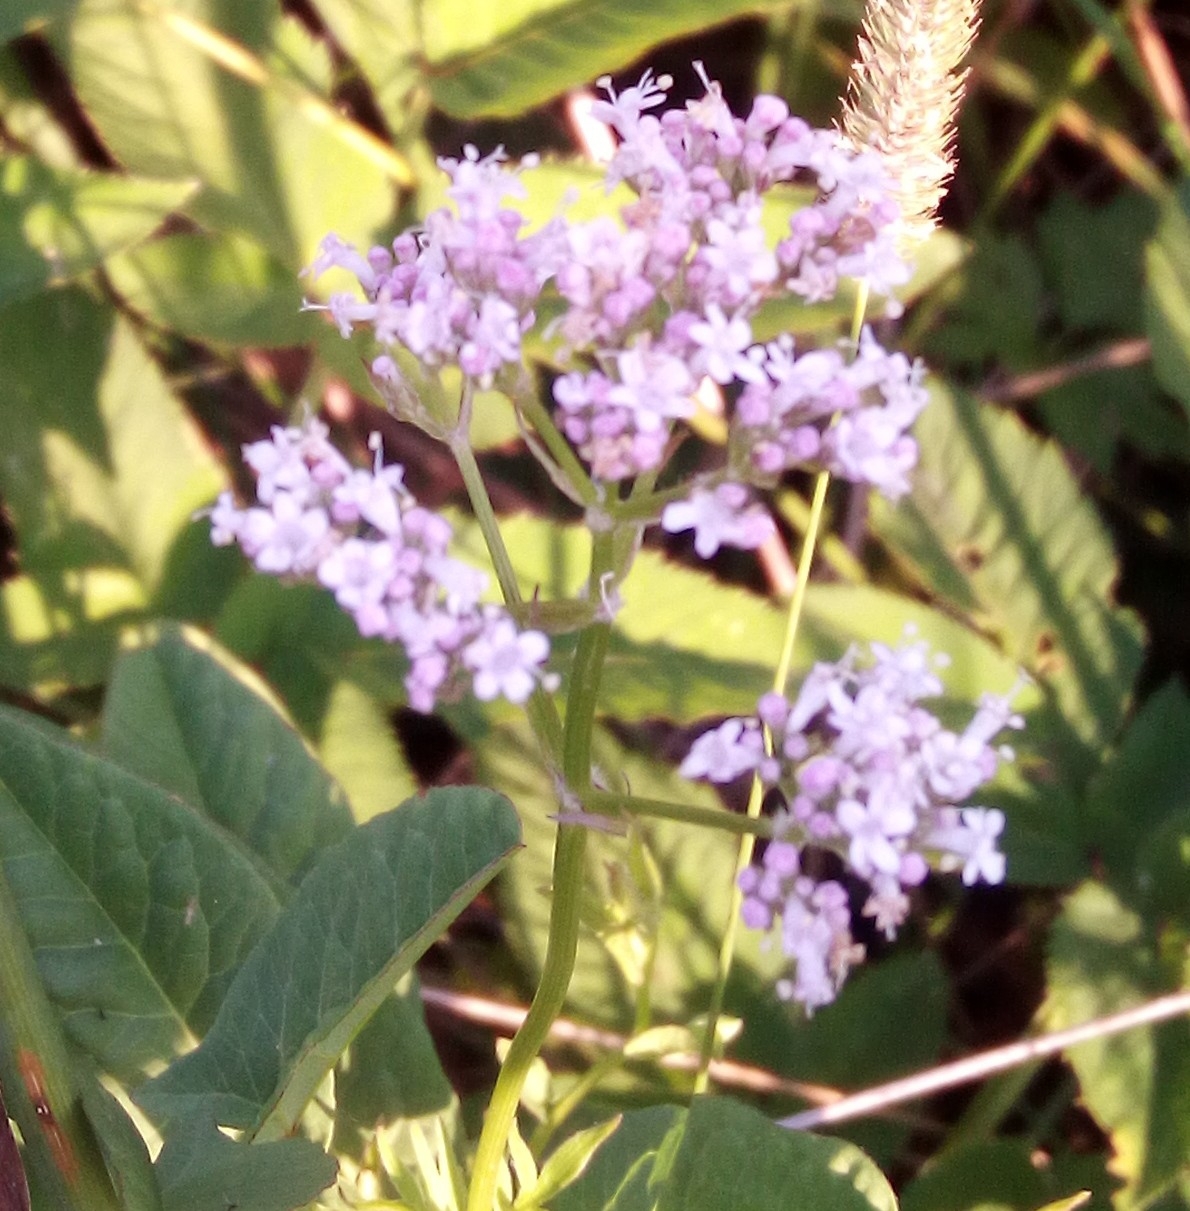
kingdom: Plantae
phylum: Tracheophyta
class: Magnoliopsida
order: Dipsacales
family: Caprifoliaceae
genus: Valeriana
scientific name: Valeriana officinalis
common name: Common valerian
